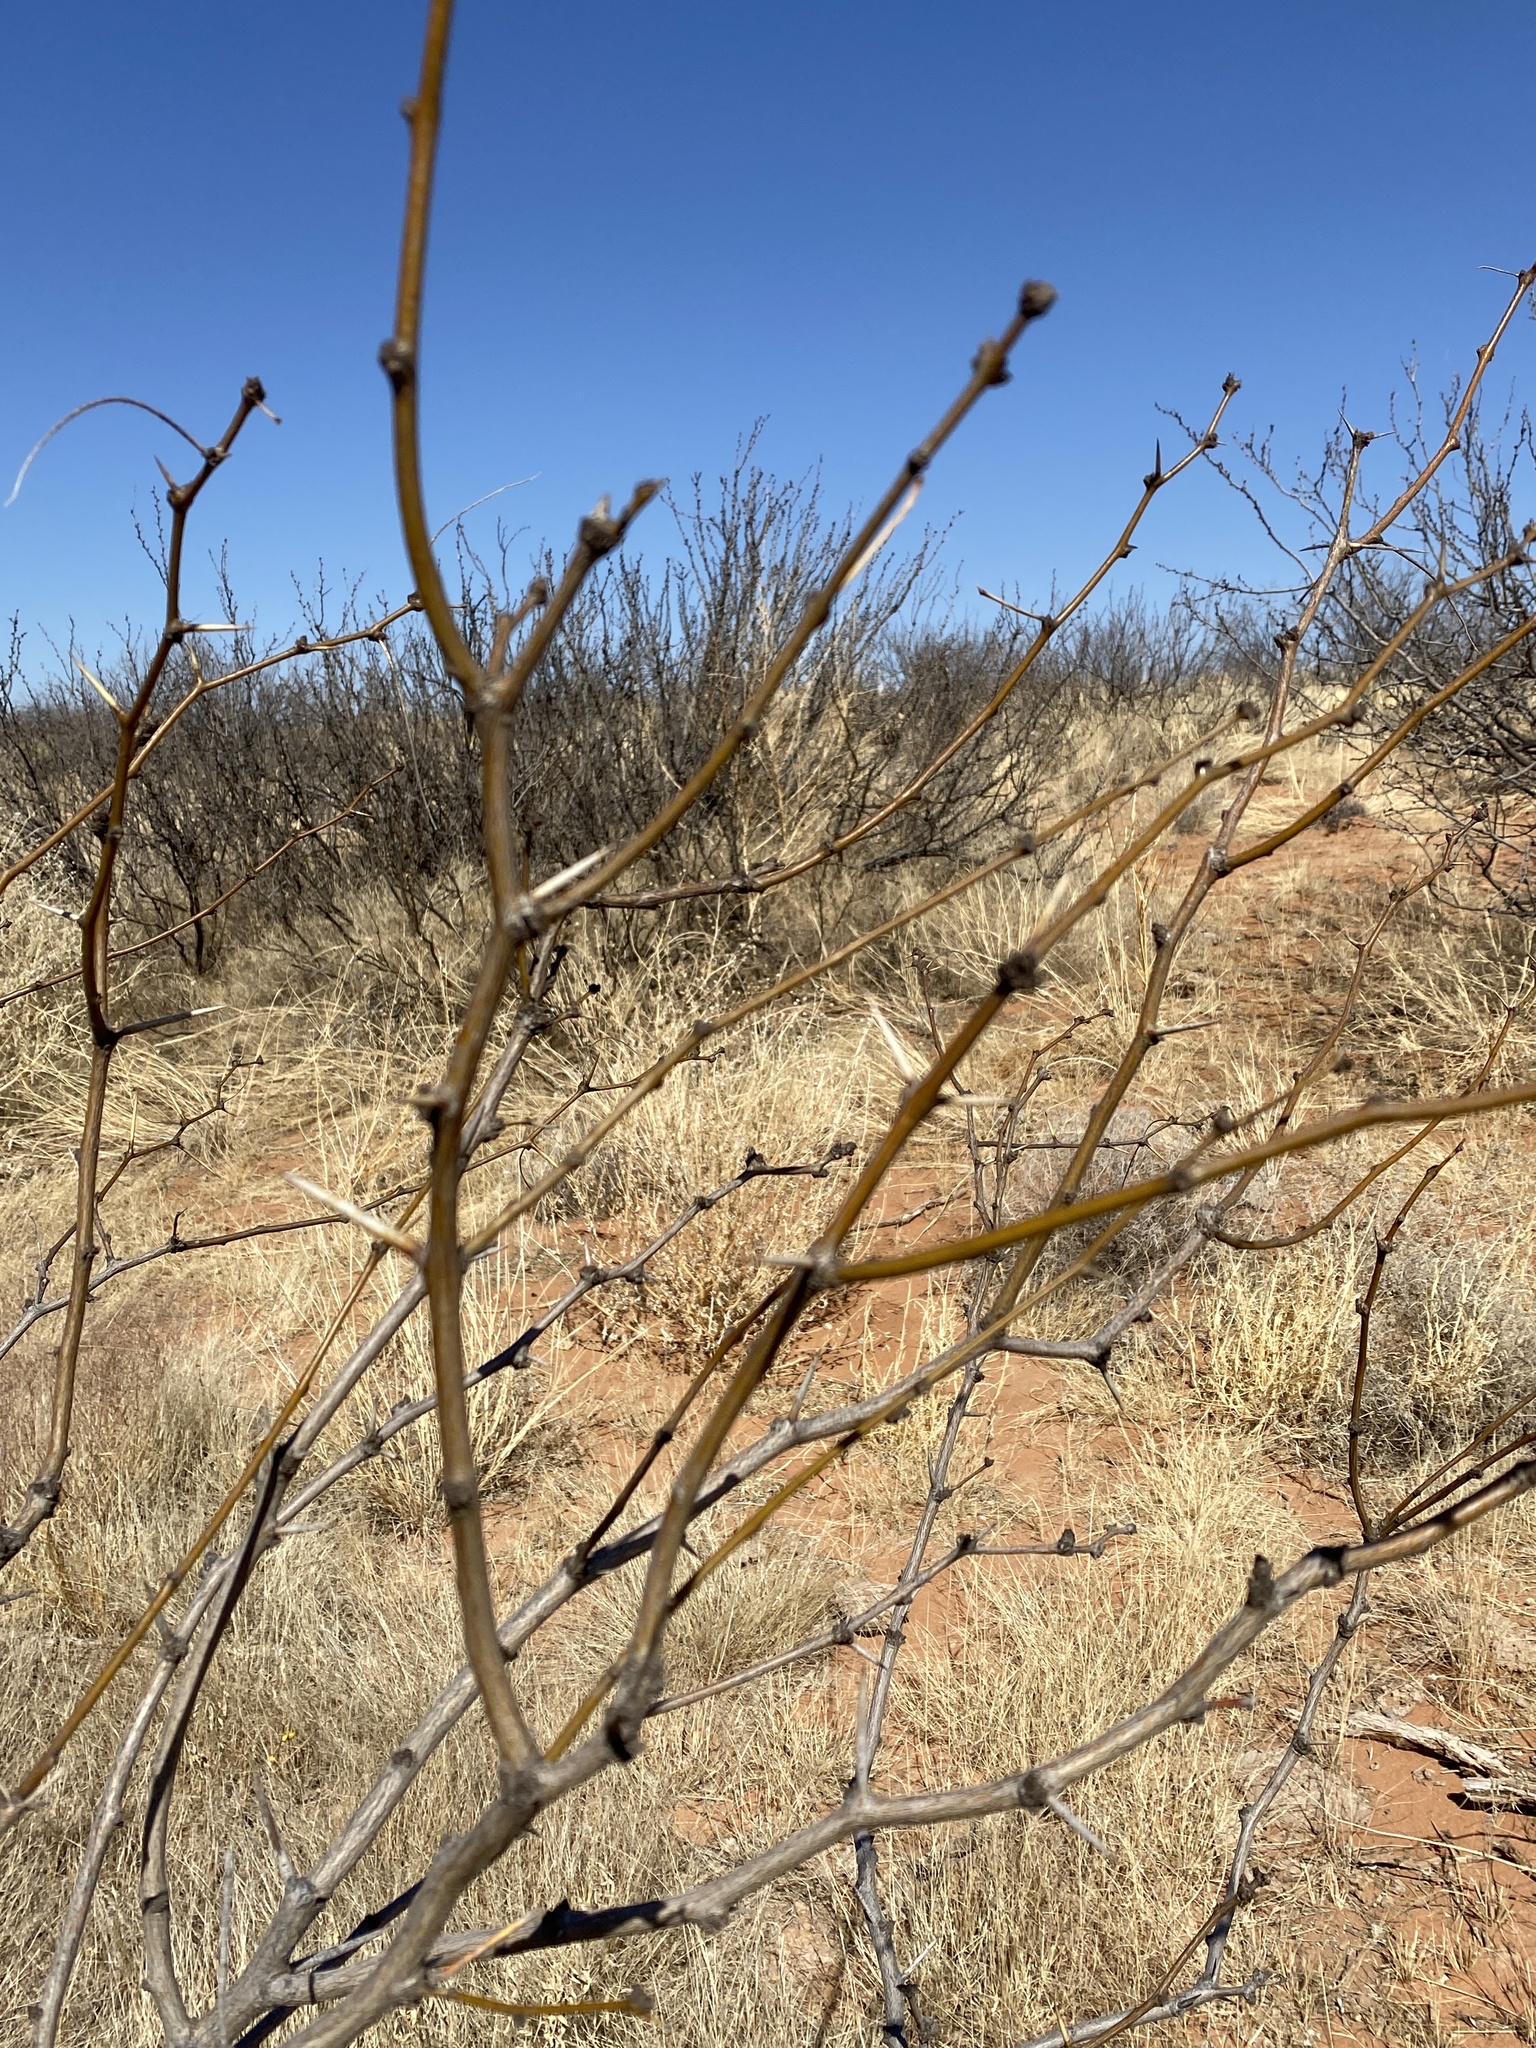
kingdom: Plantae
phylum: Tracheophyta
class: Magnoliopsida
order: Fabales
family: Fabaceae
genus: Prosopis
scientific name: Prosopis glandulosa
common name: Honey mesquite
